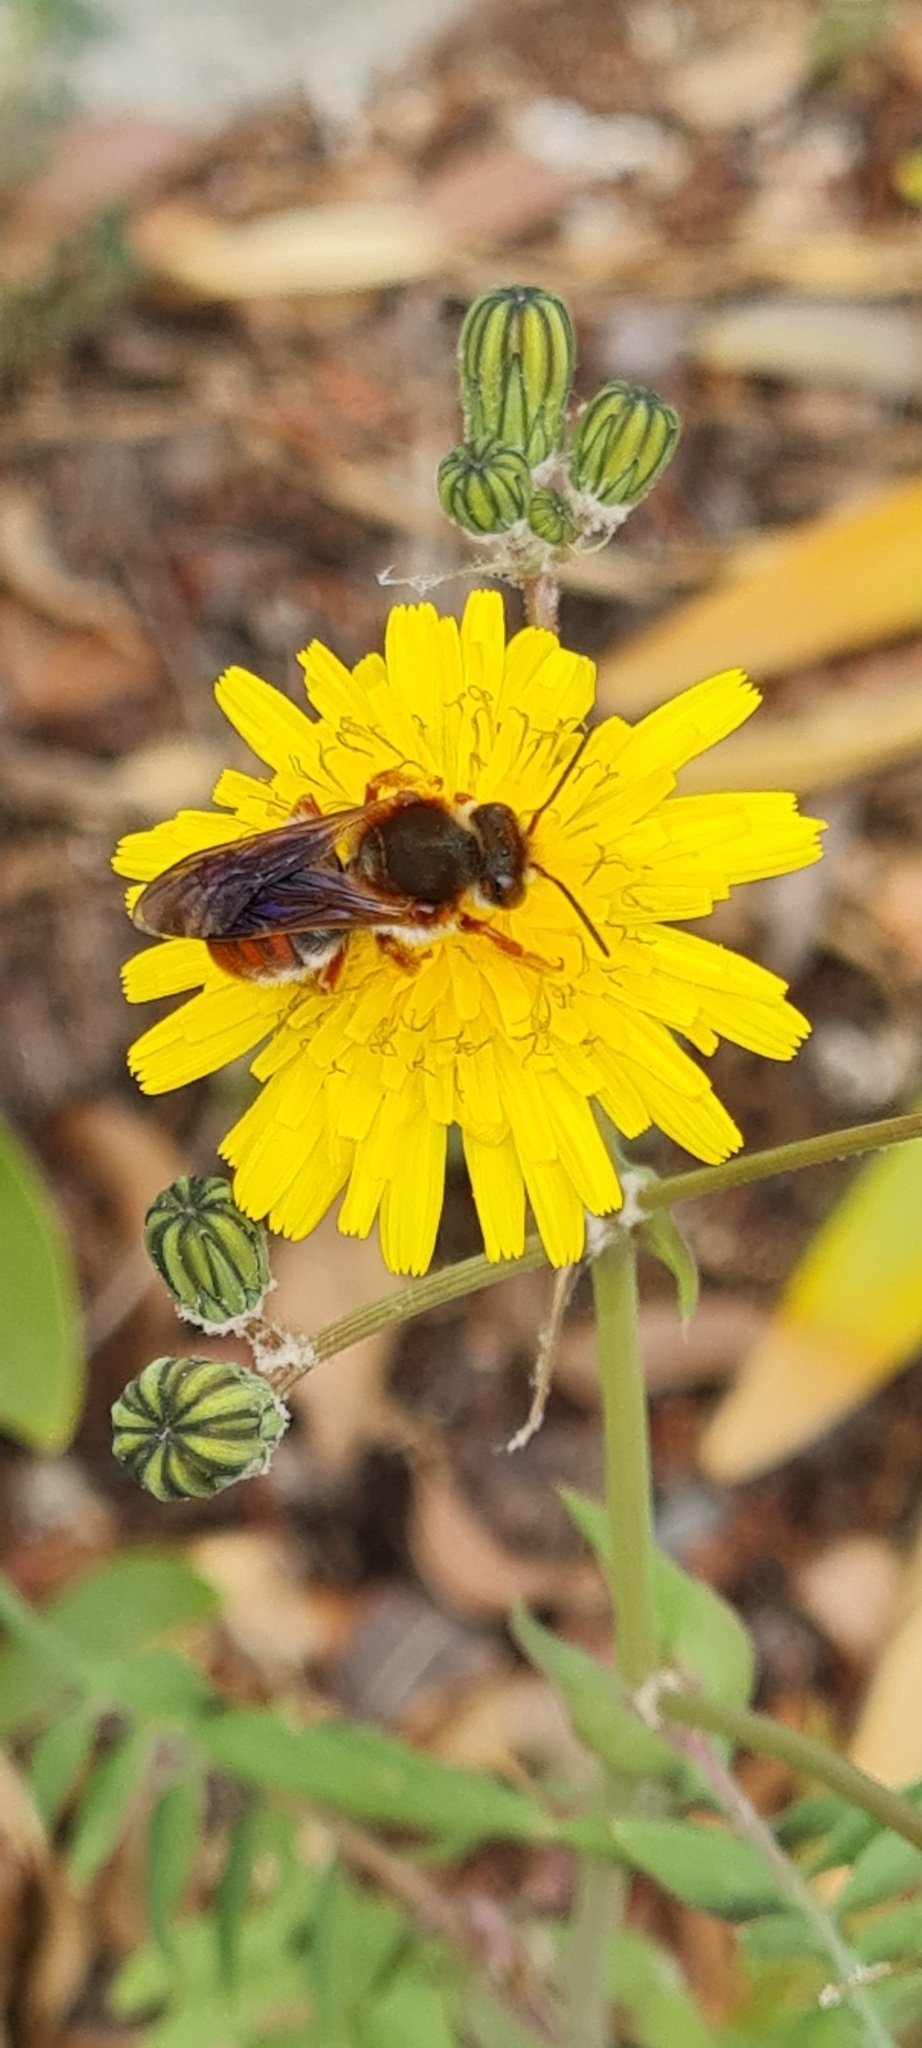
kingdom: Animalia
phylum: Arthropoda
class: Insecta
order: Hymenoptera
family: Megachilidae
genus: Rhodanthidium
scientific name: Rhodanthidium sticticum
